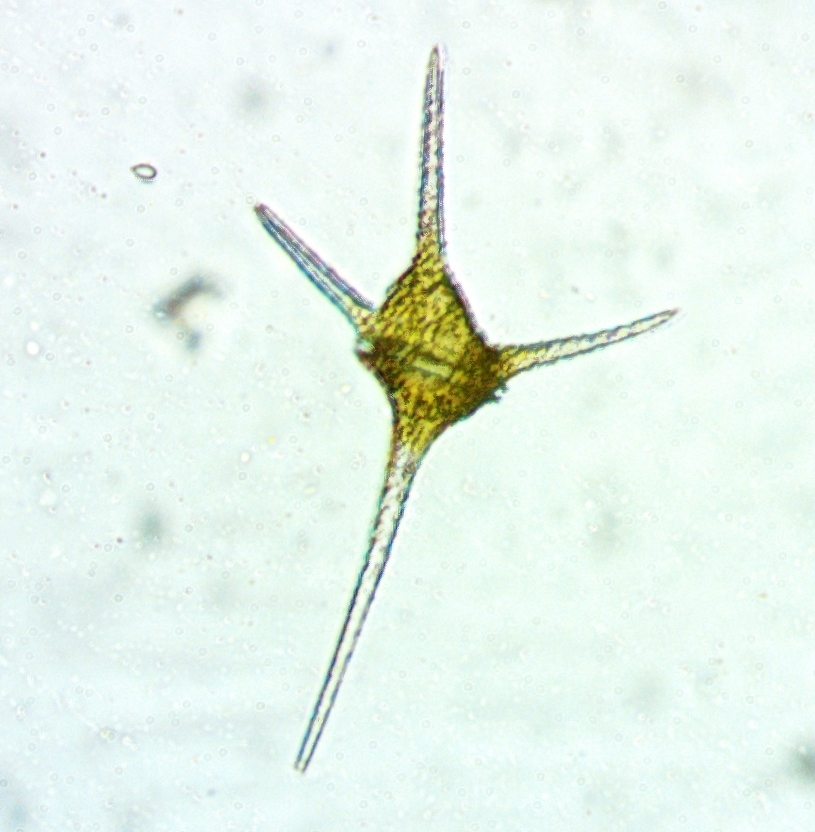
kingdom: Chromista
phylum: Myzozoa
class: Dinophyceae
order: Gonyaulacales
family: Ceratiaceae
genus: Ceratium
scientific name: Ceratium hirundinella
